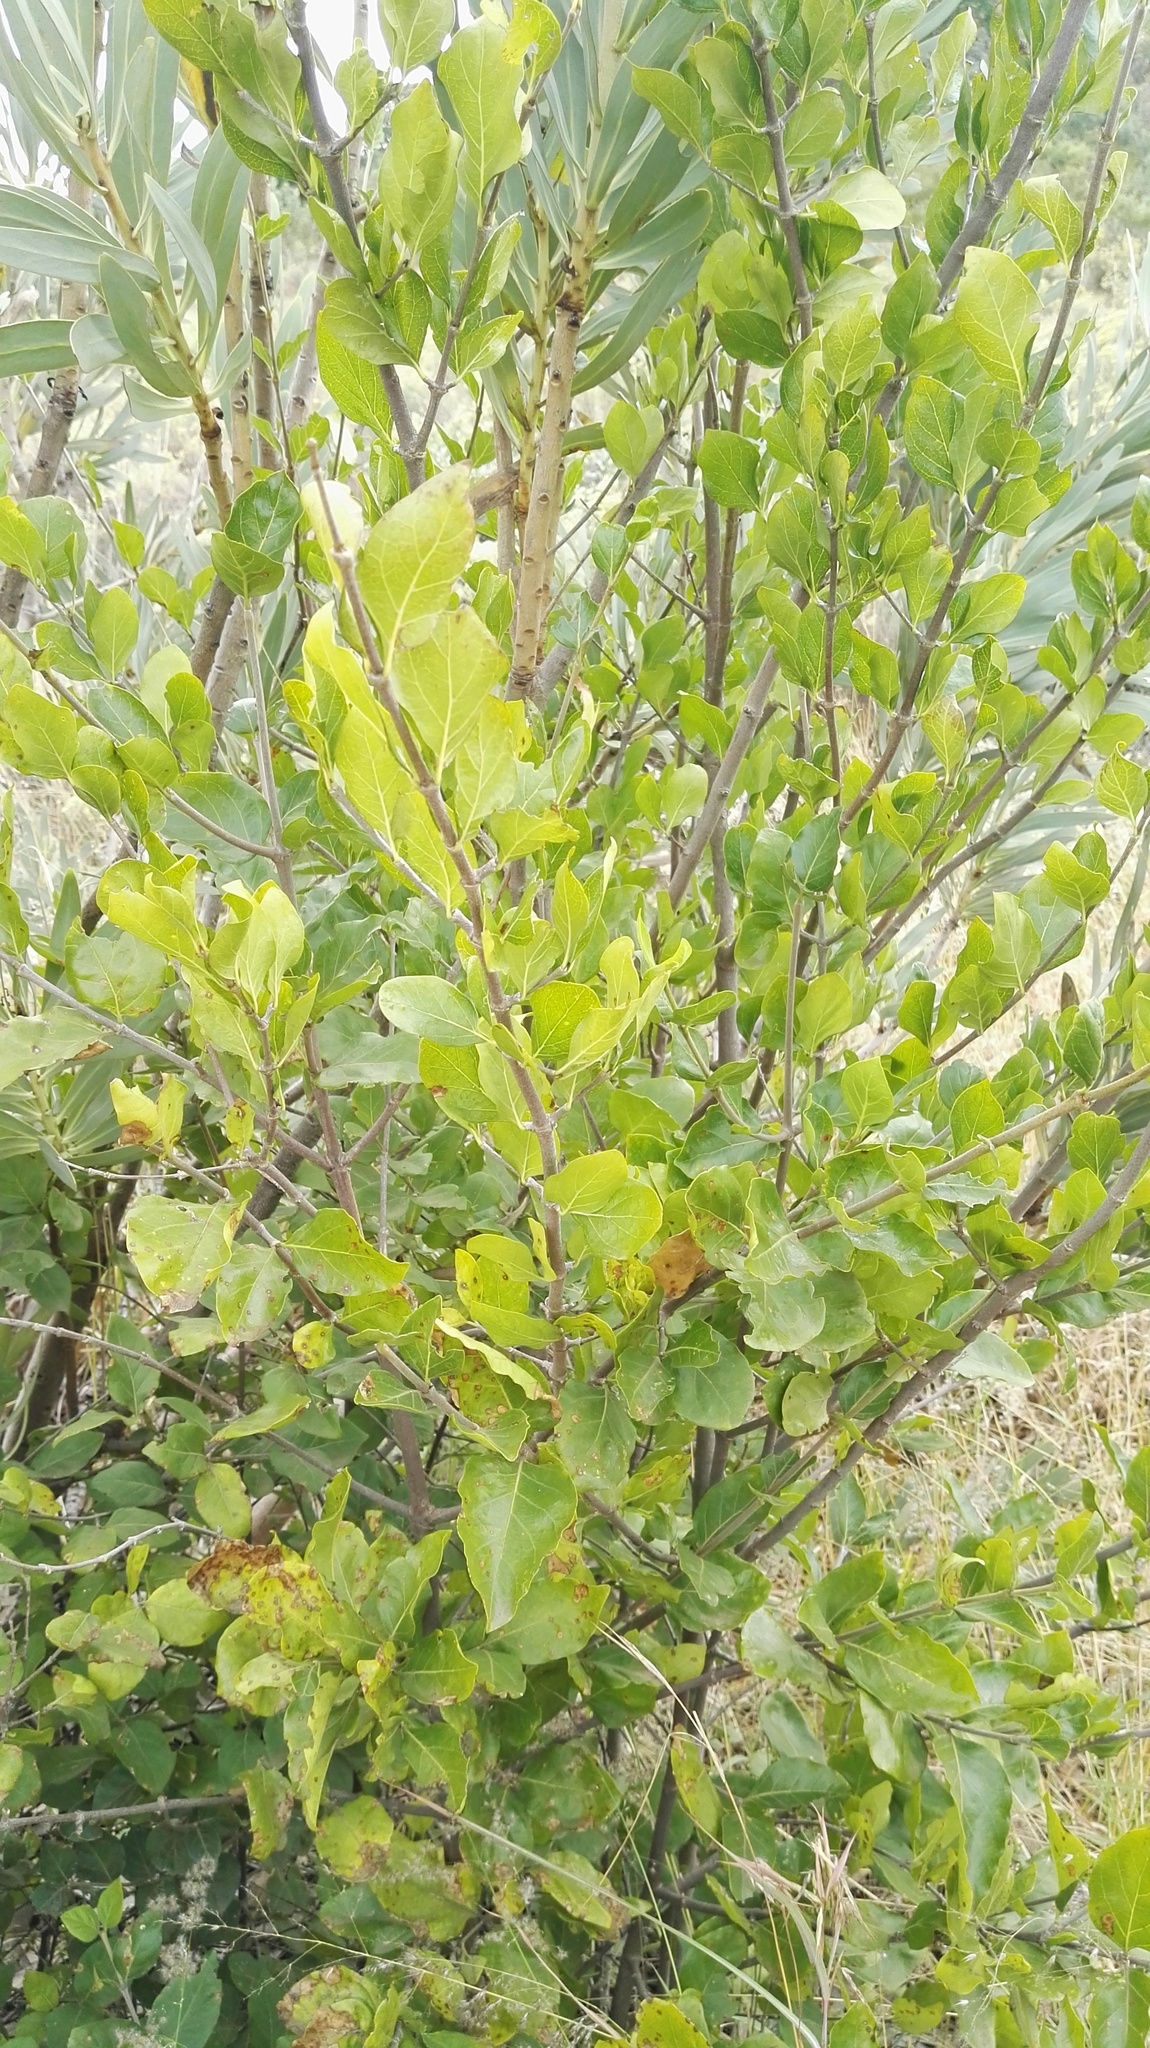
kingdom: Plantae
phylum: Tracheophyta
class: Magnoliopsida
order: Gentianales
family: Rubiaceae
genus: Afrocanthium
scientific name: Afrocanthium gilfillanii
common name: Velvet rock-alder
